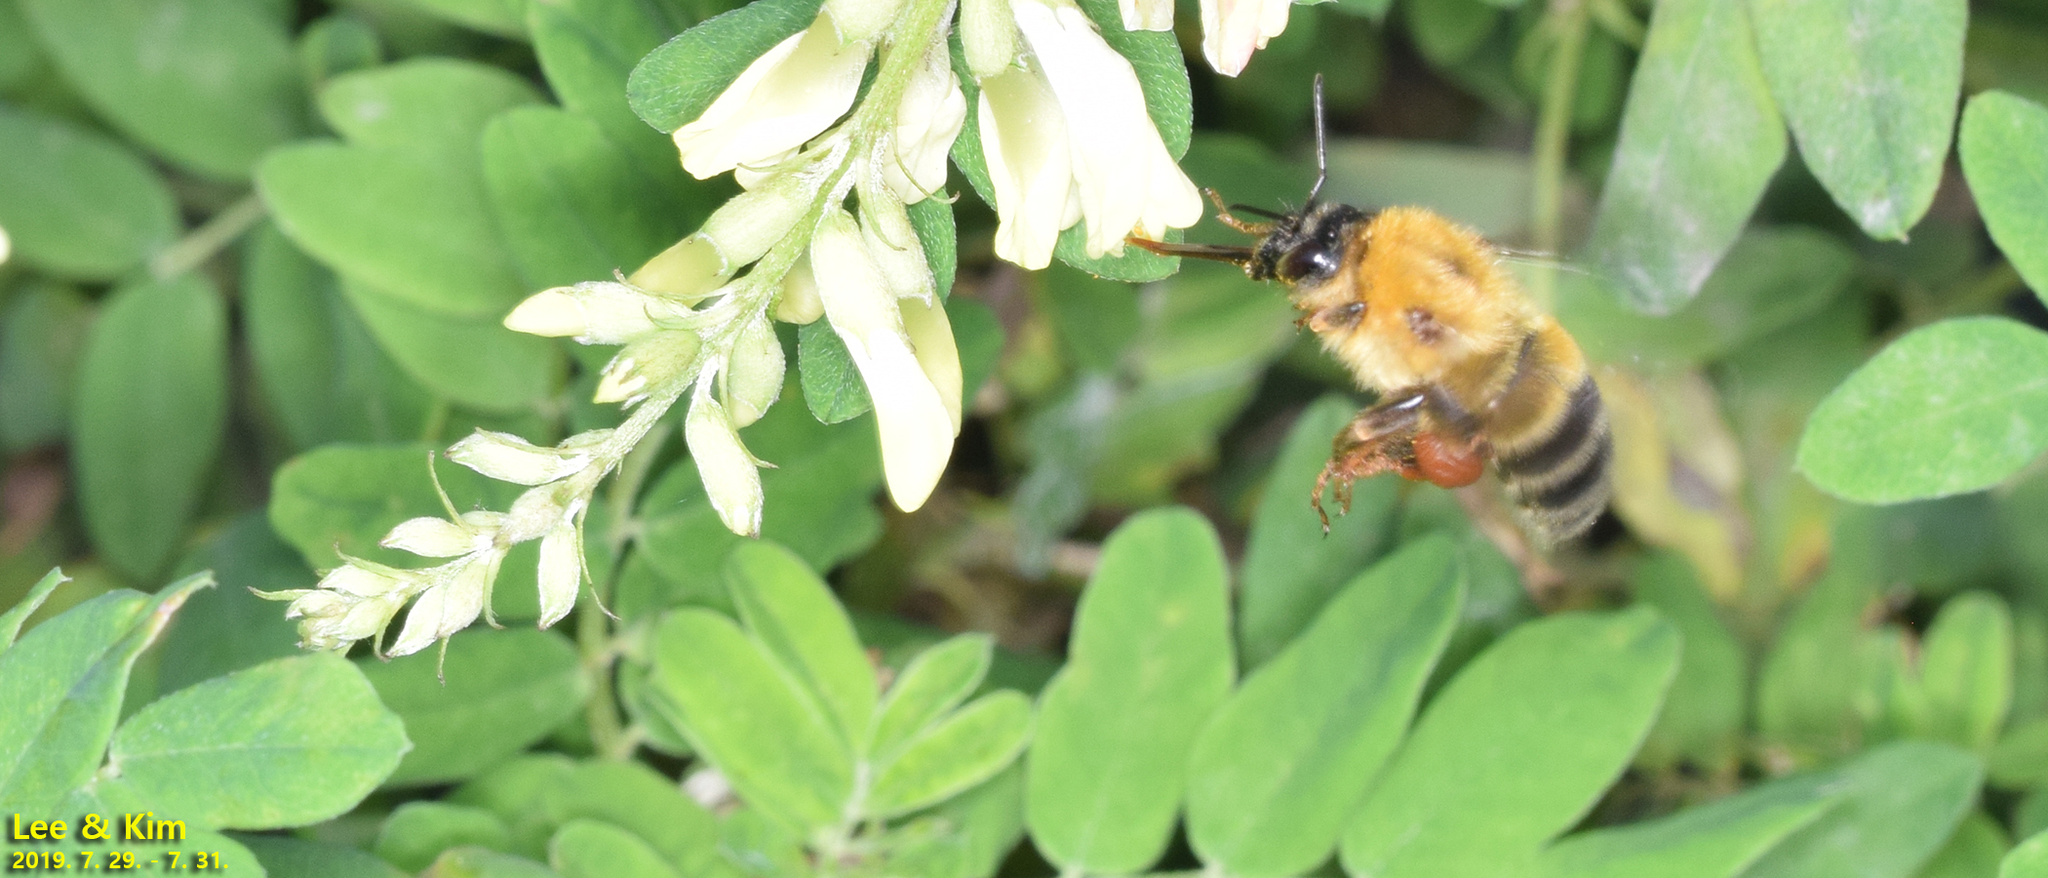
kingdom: Animalia
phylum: Arthropoda
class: Insecta
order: Hymenoptera
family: Apidae
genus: Bombus
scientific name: Bombus ussurensis
